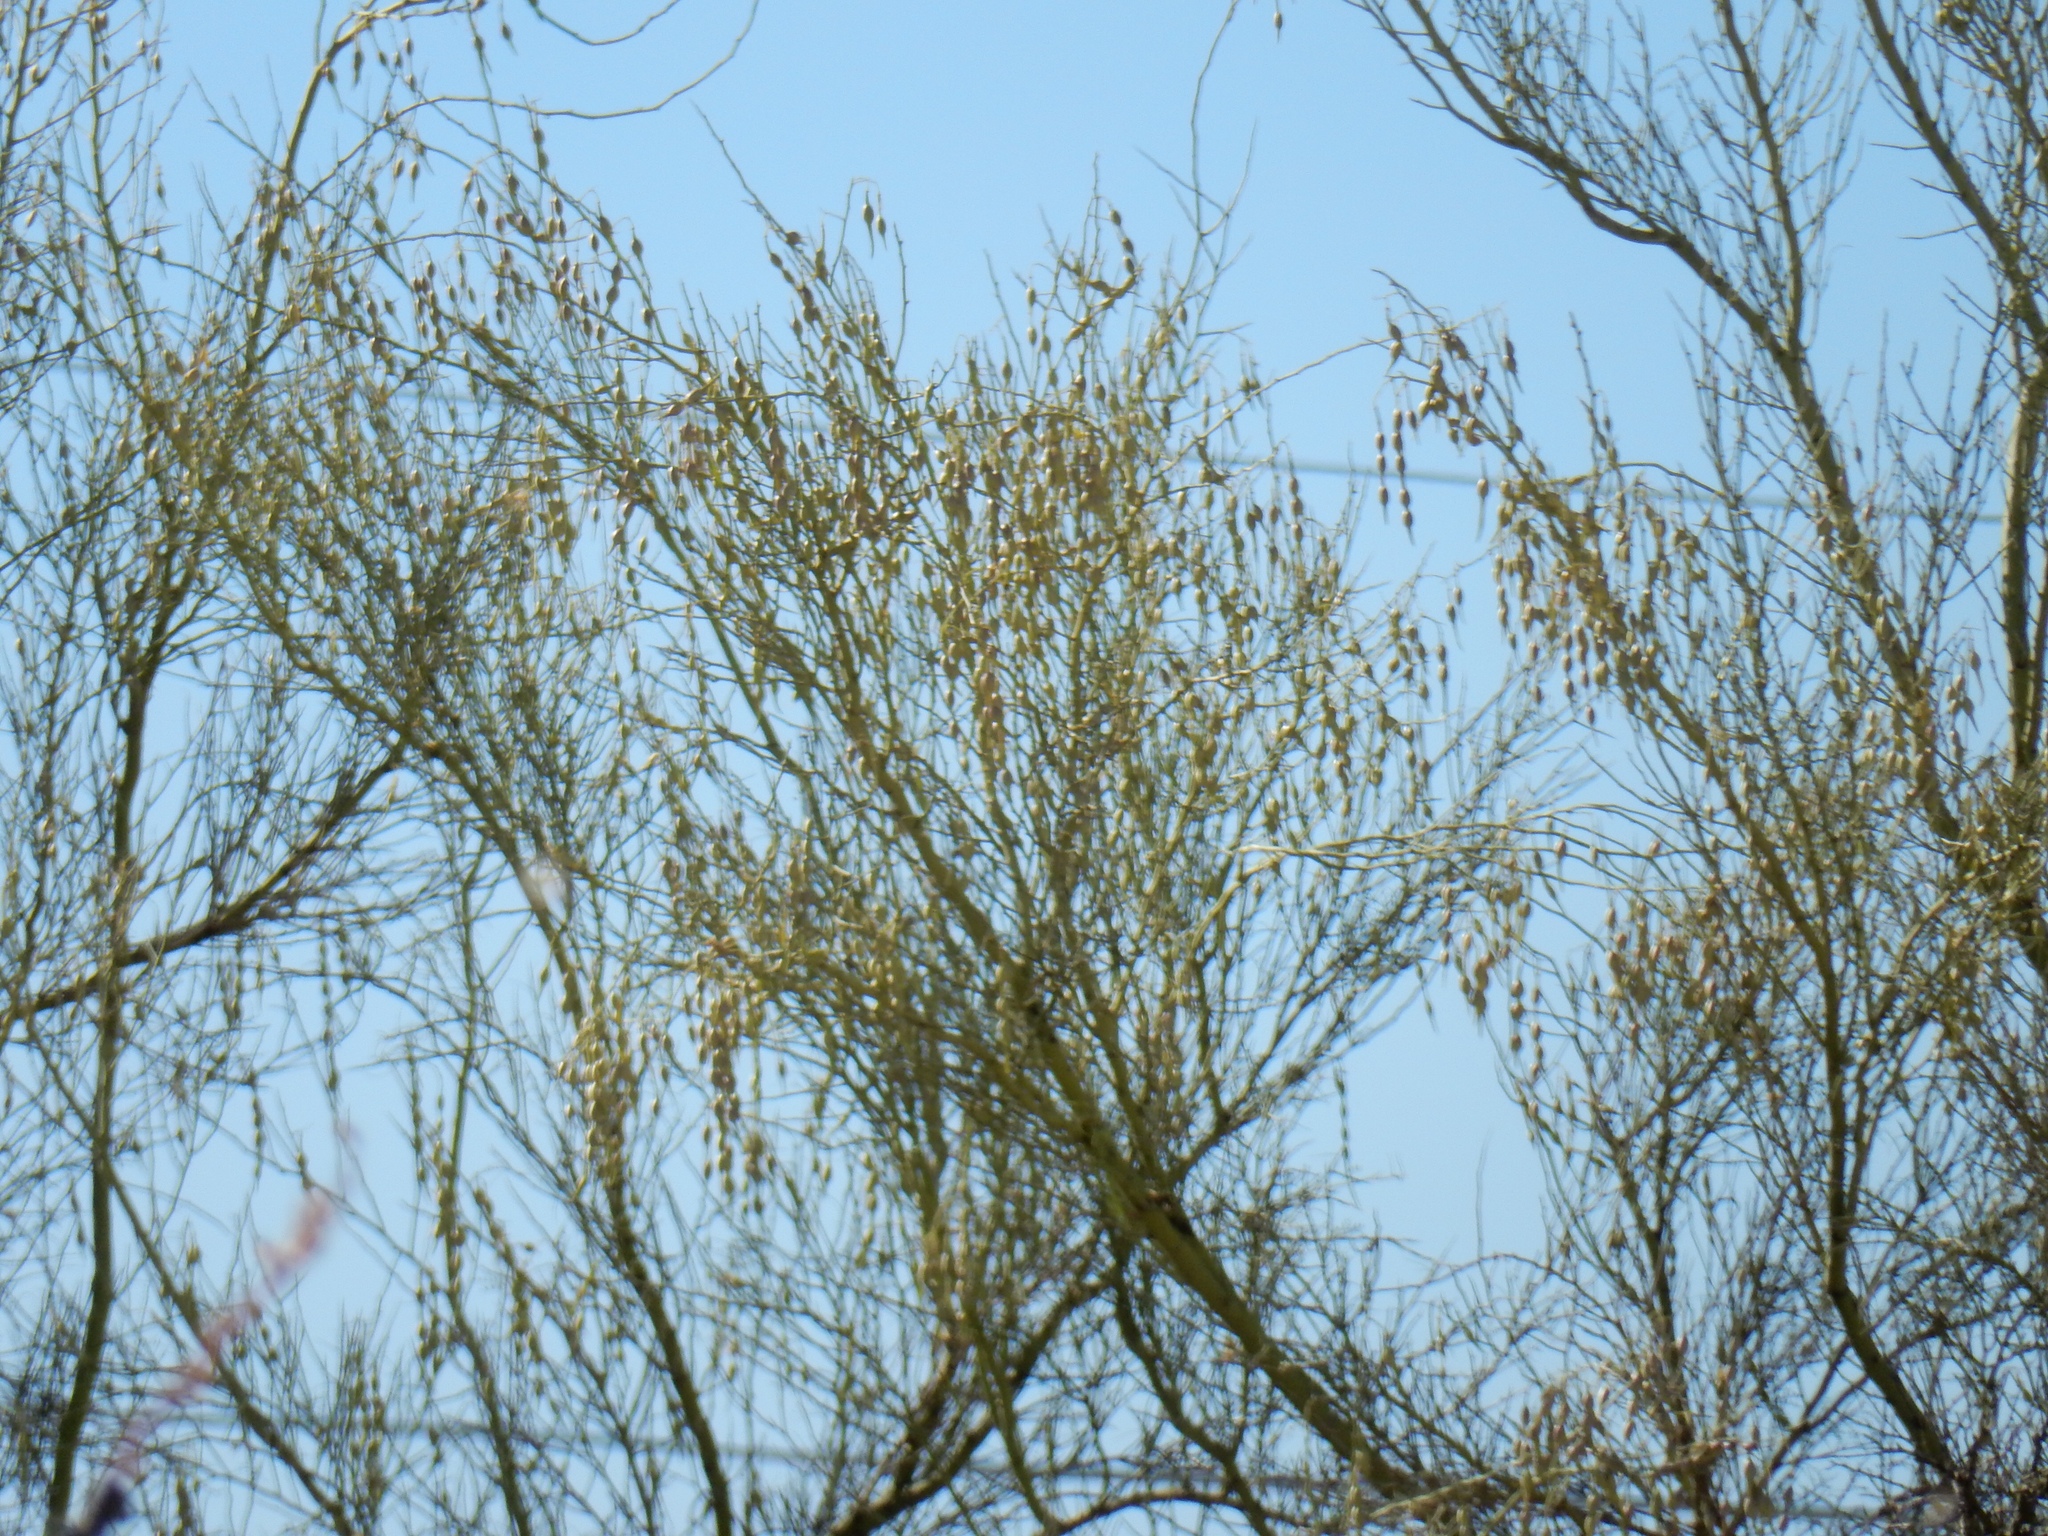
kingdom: Plantae
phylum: Tracheophyta
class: Magnoliopsida
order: Fabales
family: Fabaceae
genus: Parkinsonia
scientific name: Parkinsonia microphylla
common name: Yellow paloverde
